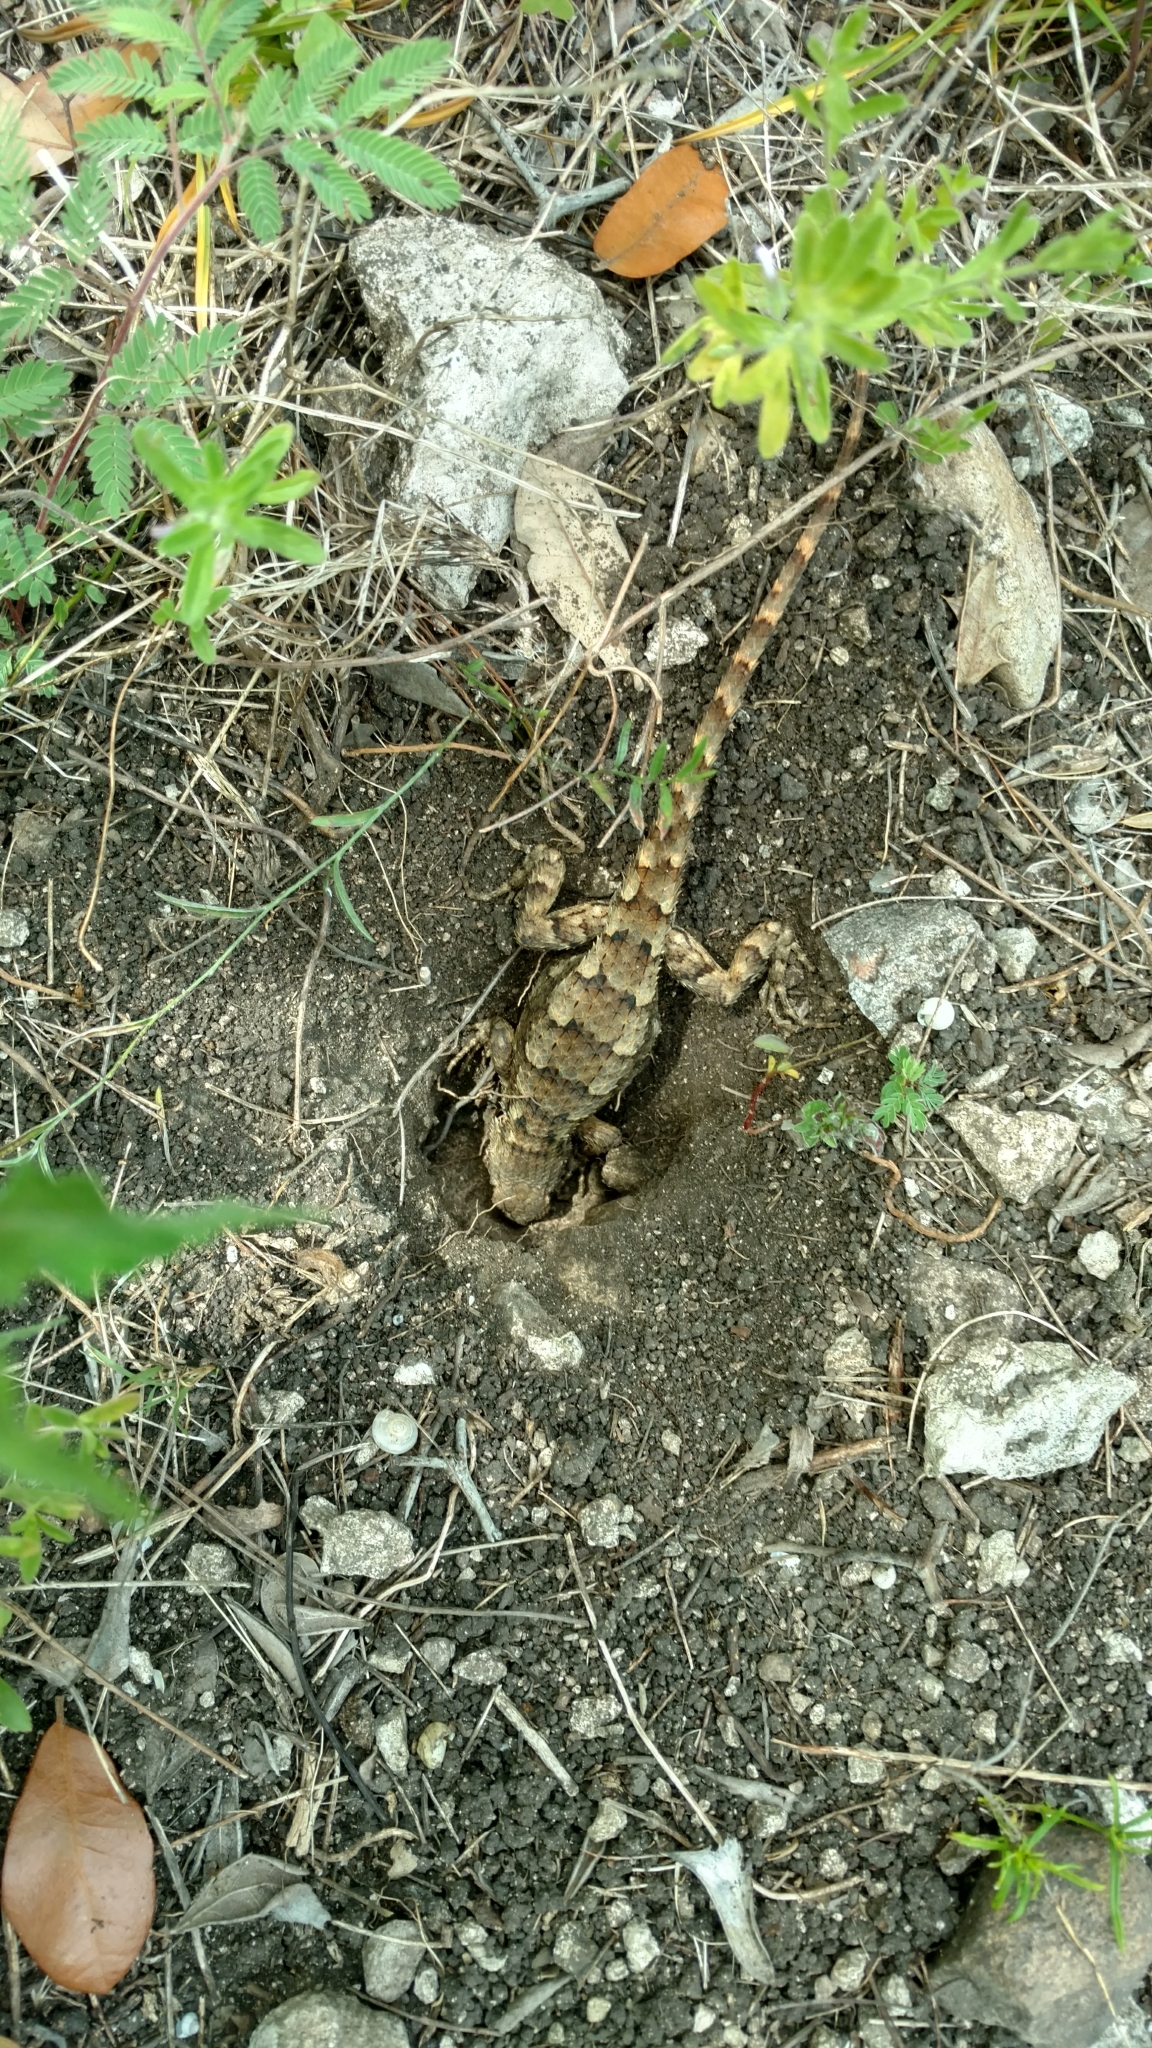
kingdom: Animalia
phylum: Chordata
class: Squamata
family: Phrynosomatidae
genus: Sceloporus
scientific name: Sceloporus olivaceus
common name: Texas spiny lizard
